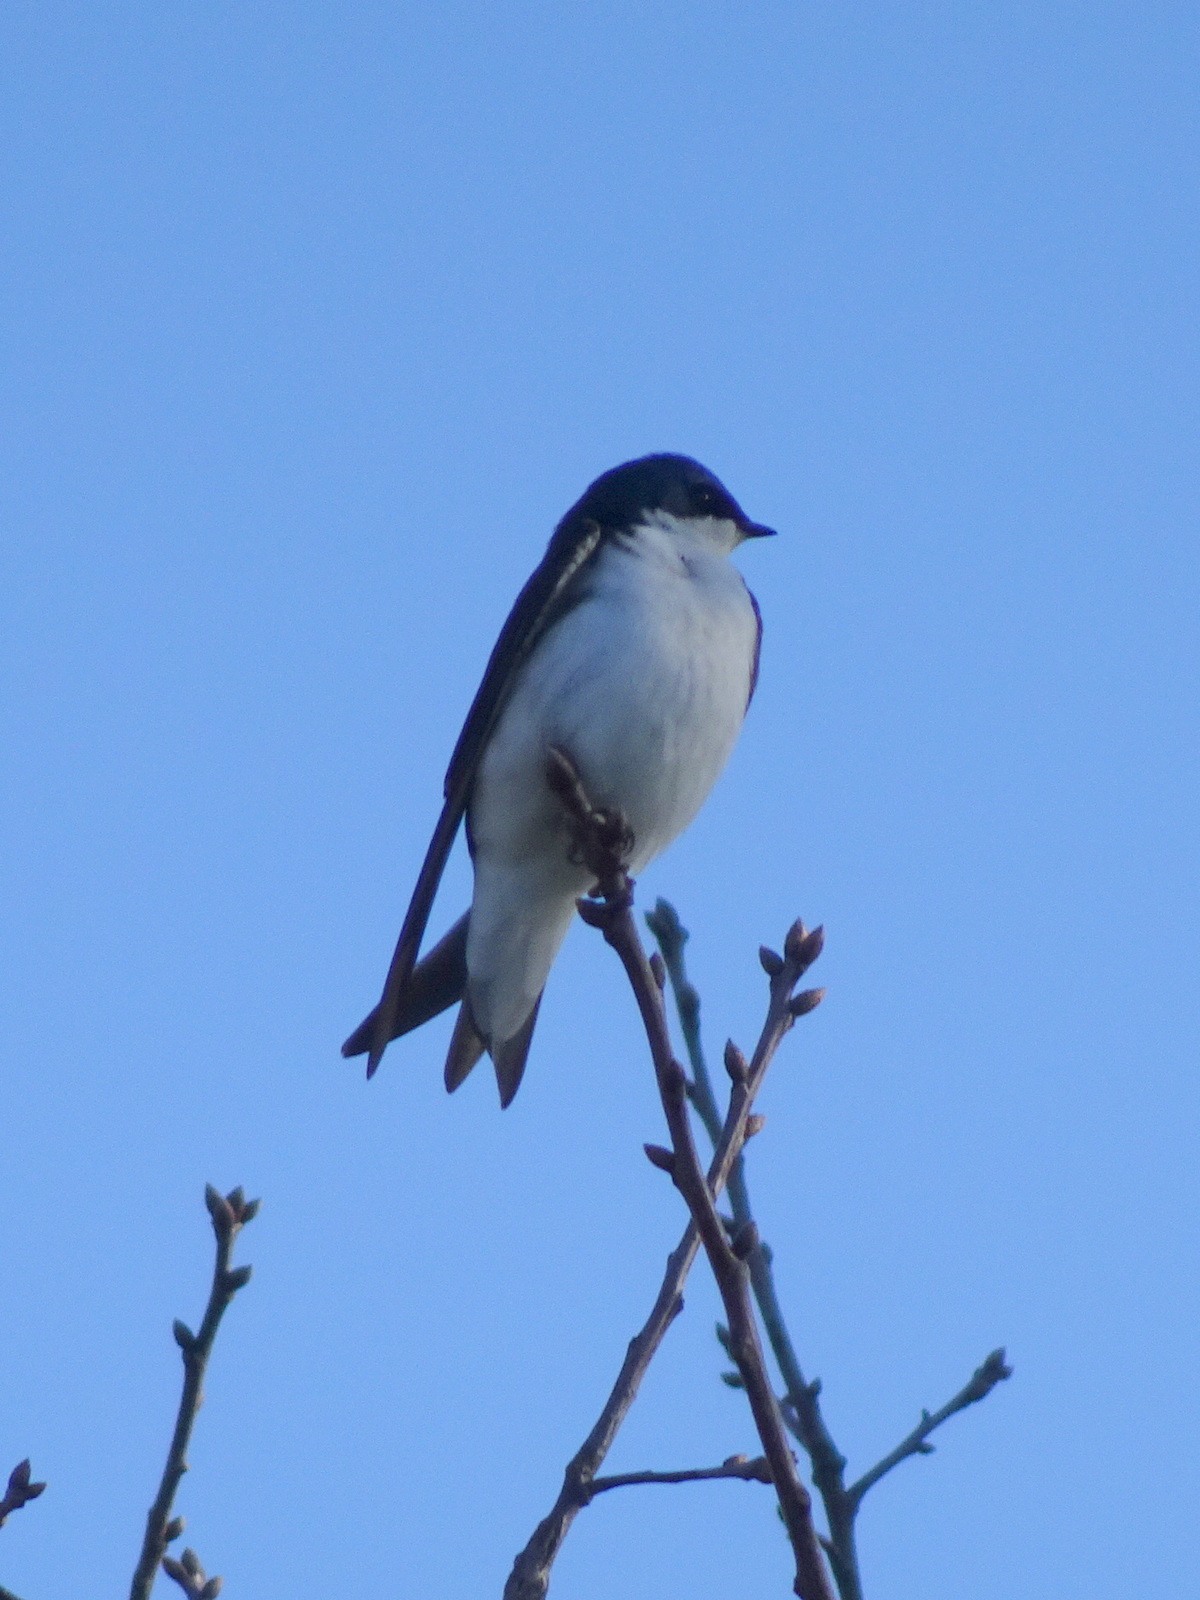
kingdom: Animalia
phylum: Chordata
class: Aves
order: Passeriformes
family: Hirundinidae
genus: Tachycineta
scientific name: Tachycineta bicolor
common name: Tree swallow
